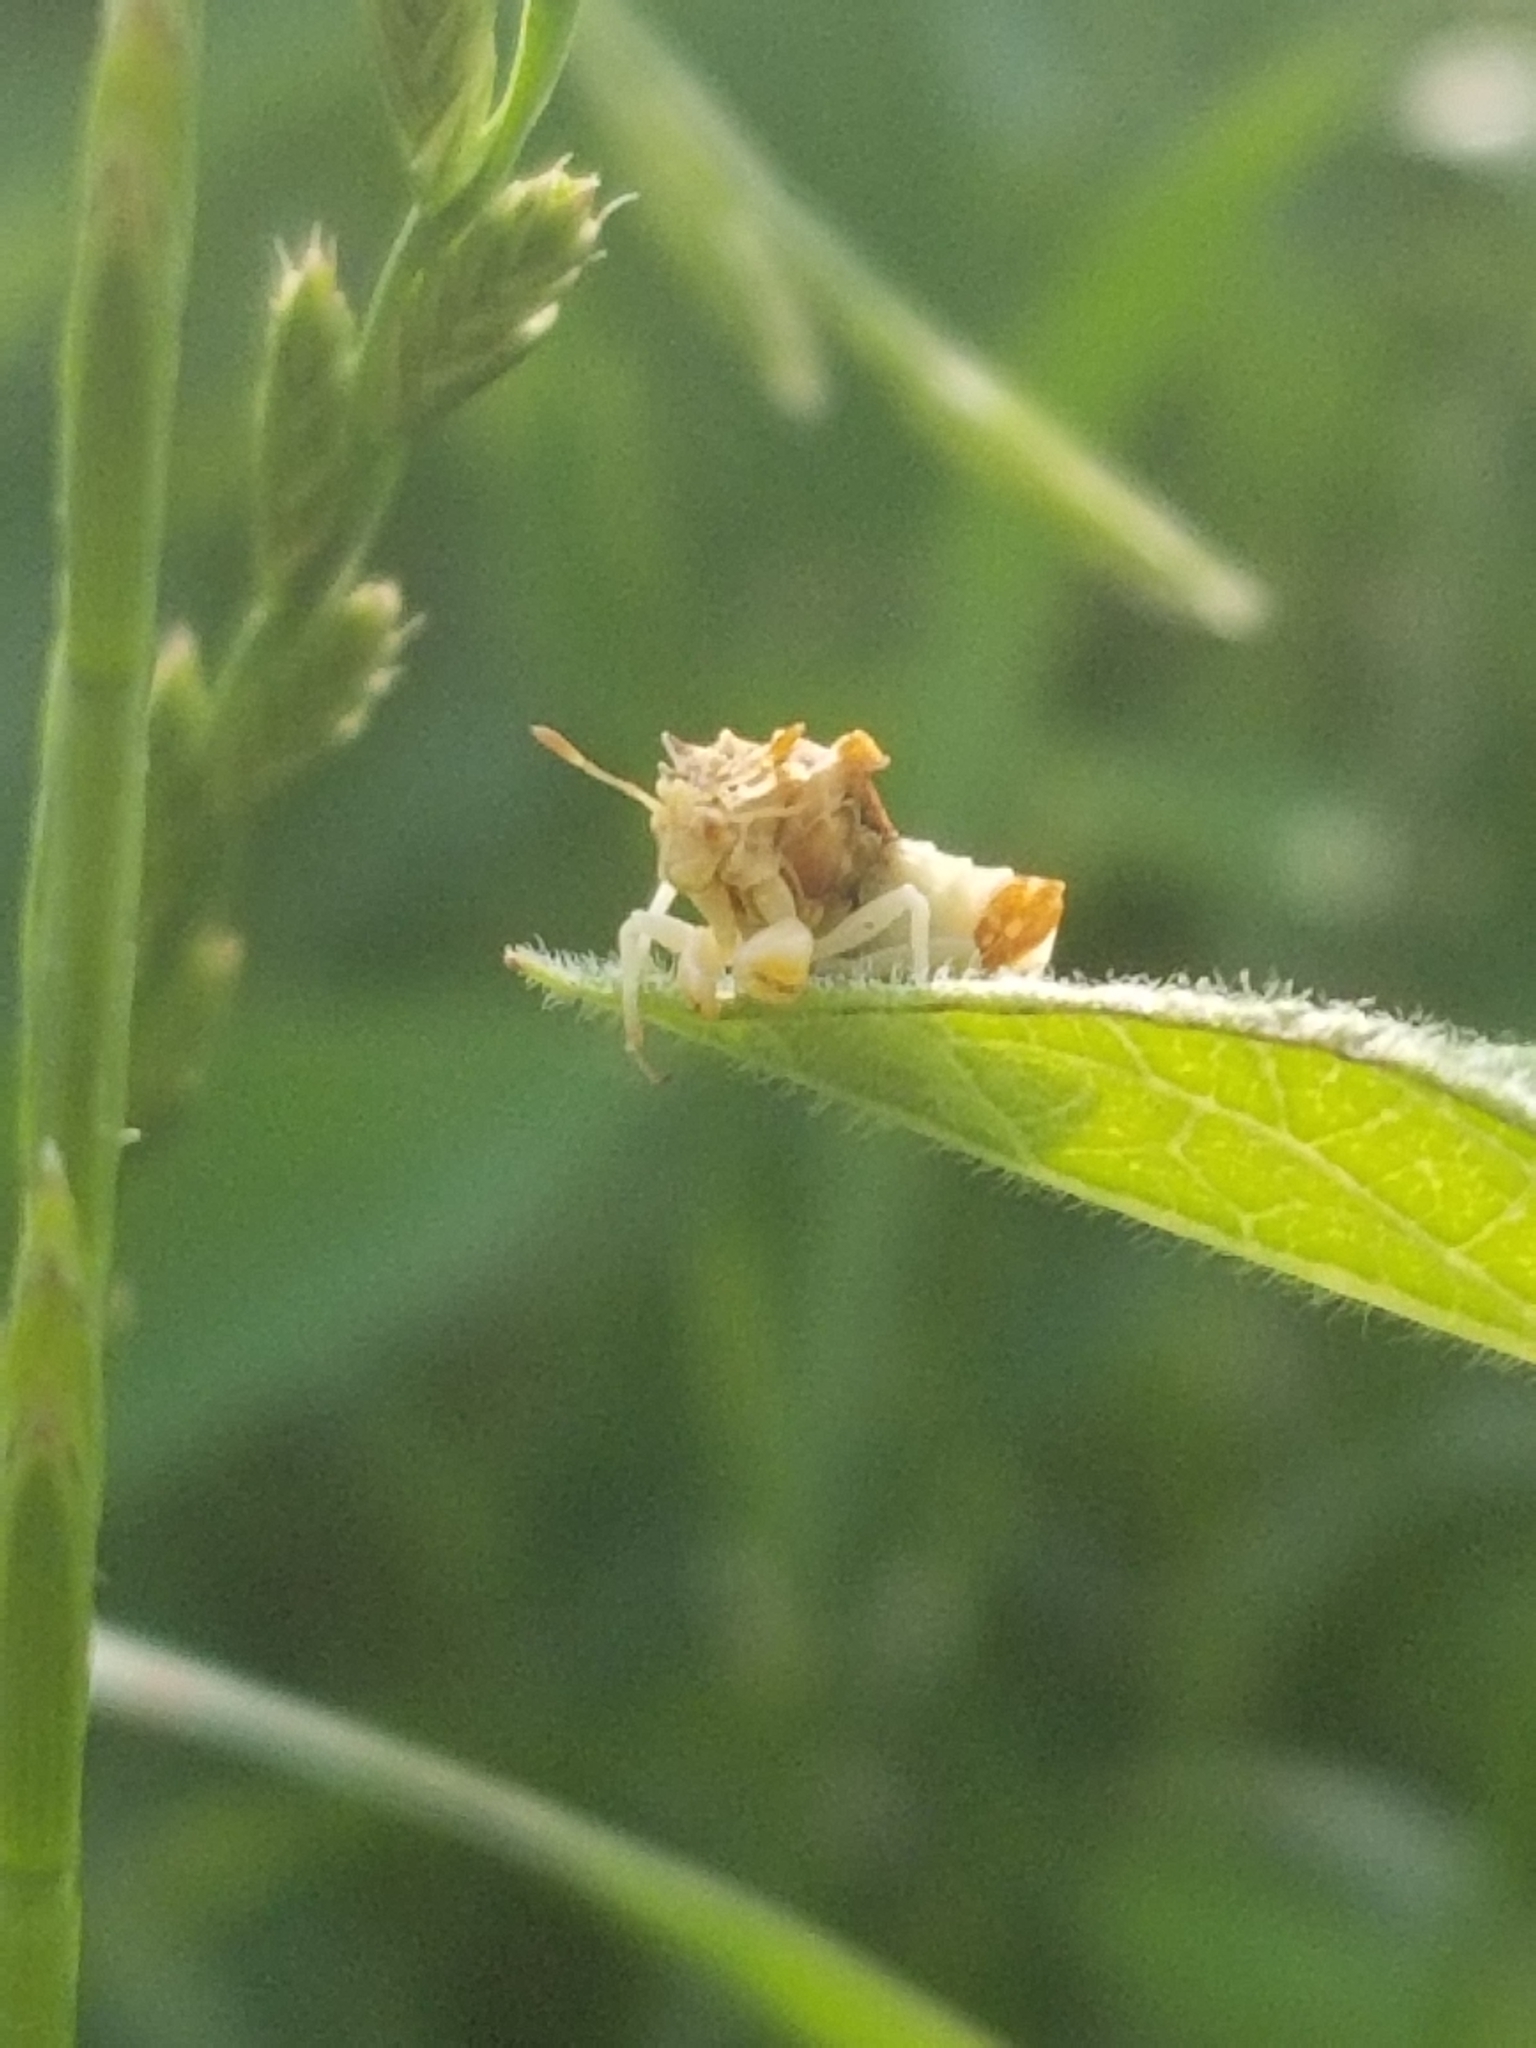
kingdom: Animalia
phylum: Arthropoda
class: Insecta
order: Hemiptera
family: Reduviidae
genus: Phymata
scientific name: Phymata fasciata
